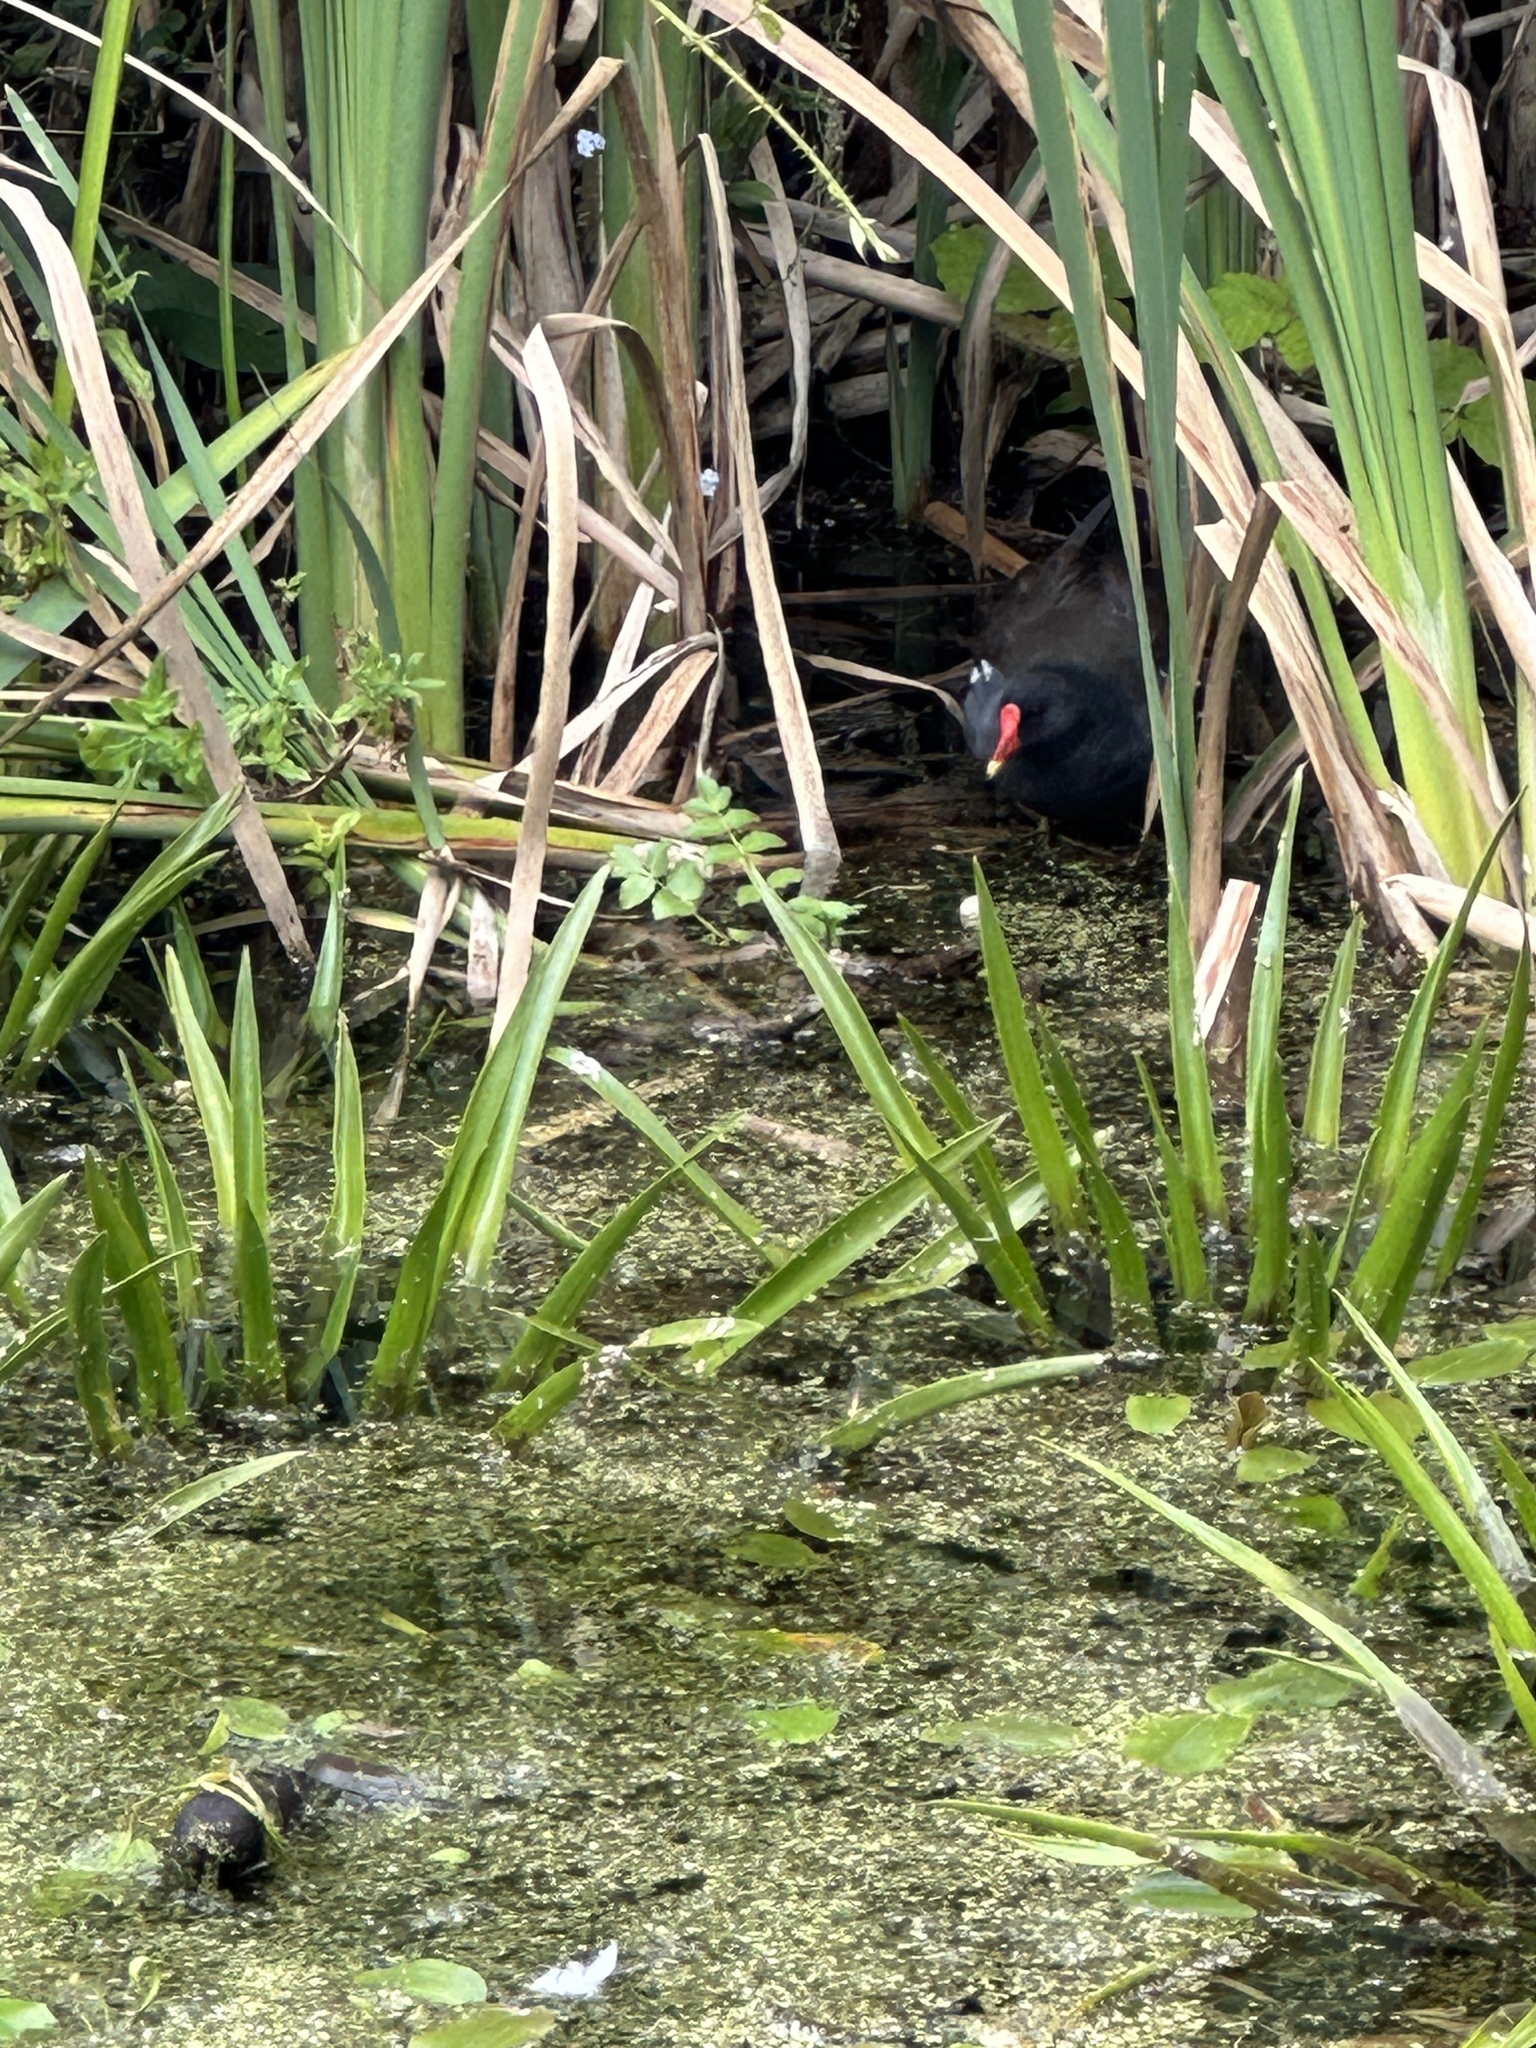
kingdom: Animalia
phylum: Chordata
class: Aves
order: Gruiformes
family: Rallidae
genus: Gallinula
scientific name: Gallinula chloropus
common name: Common moorhen
